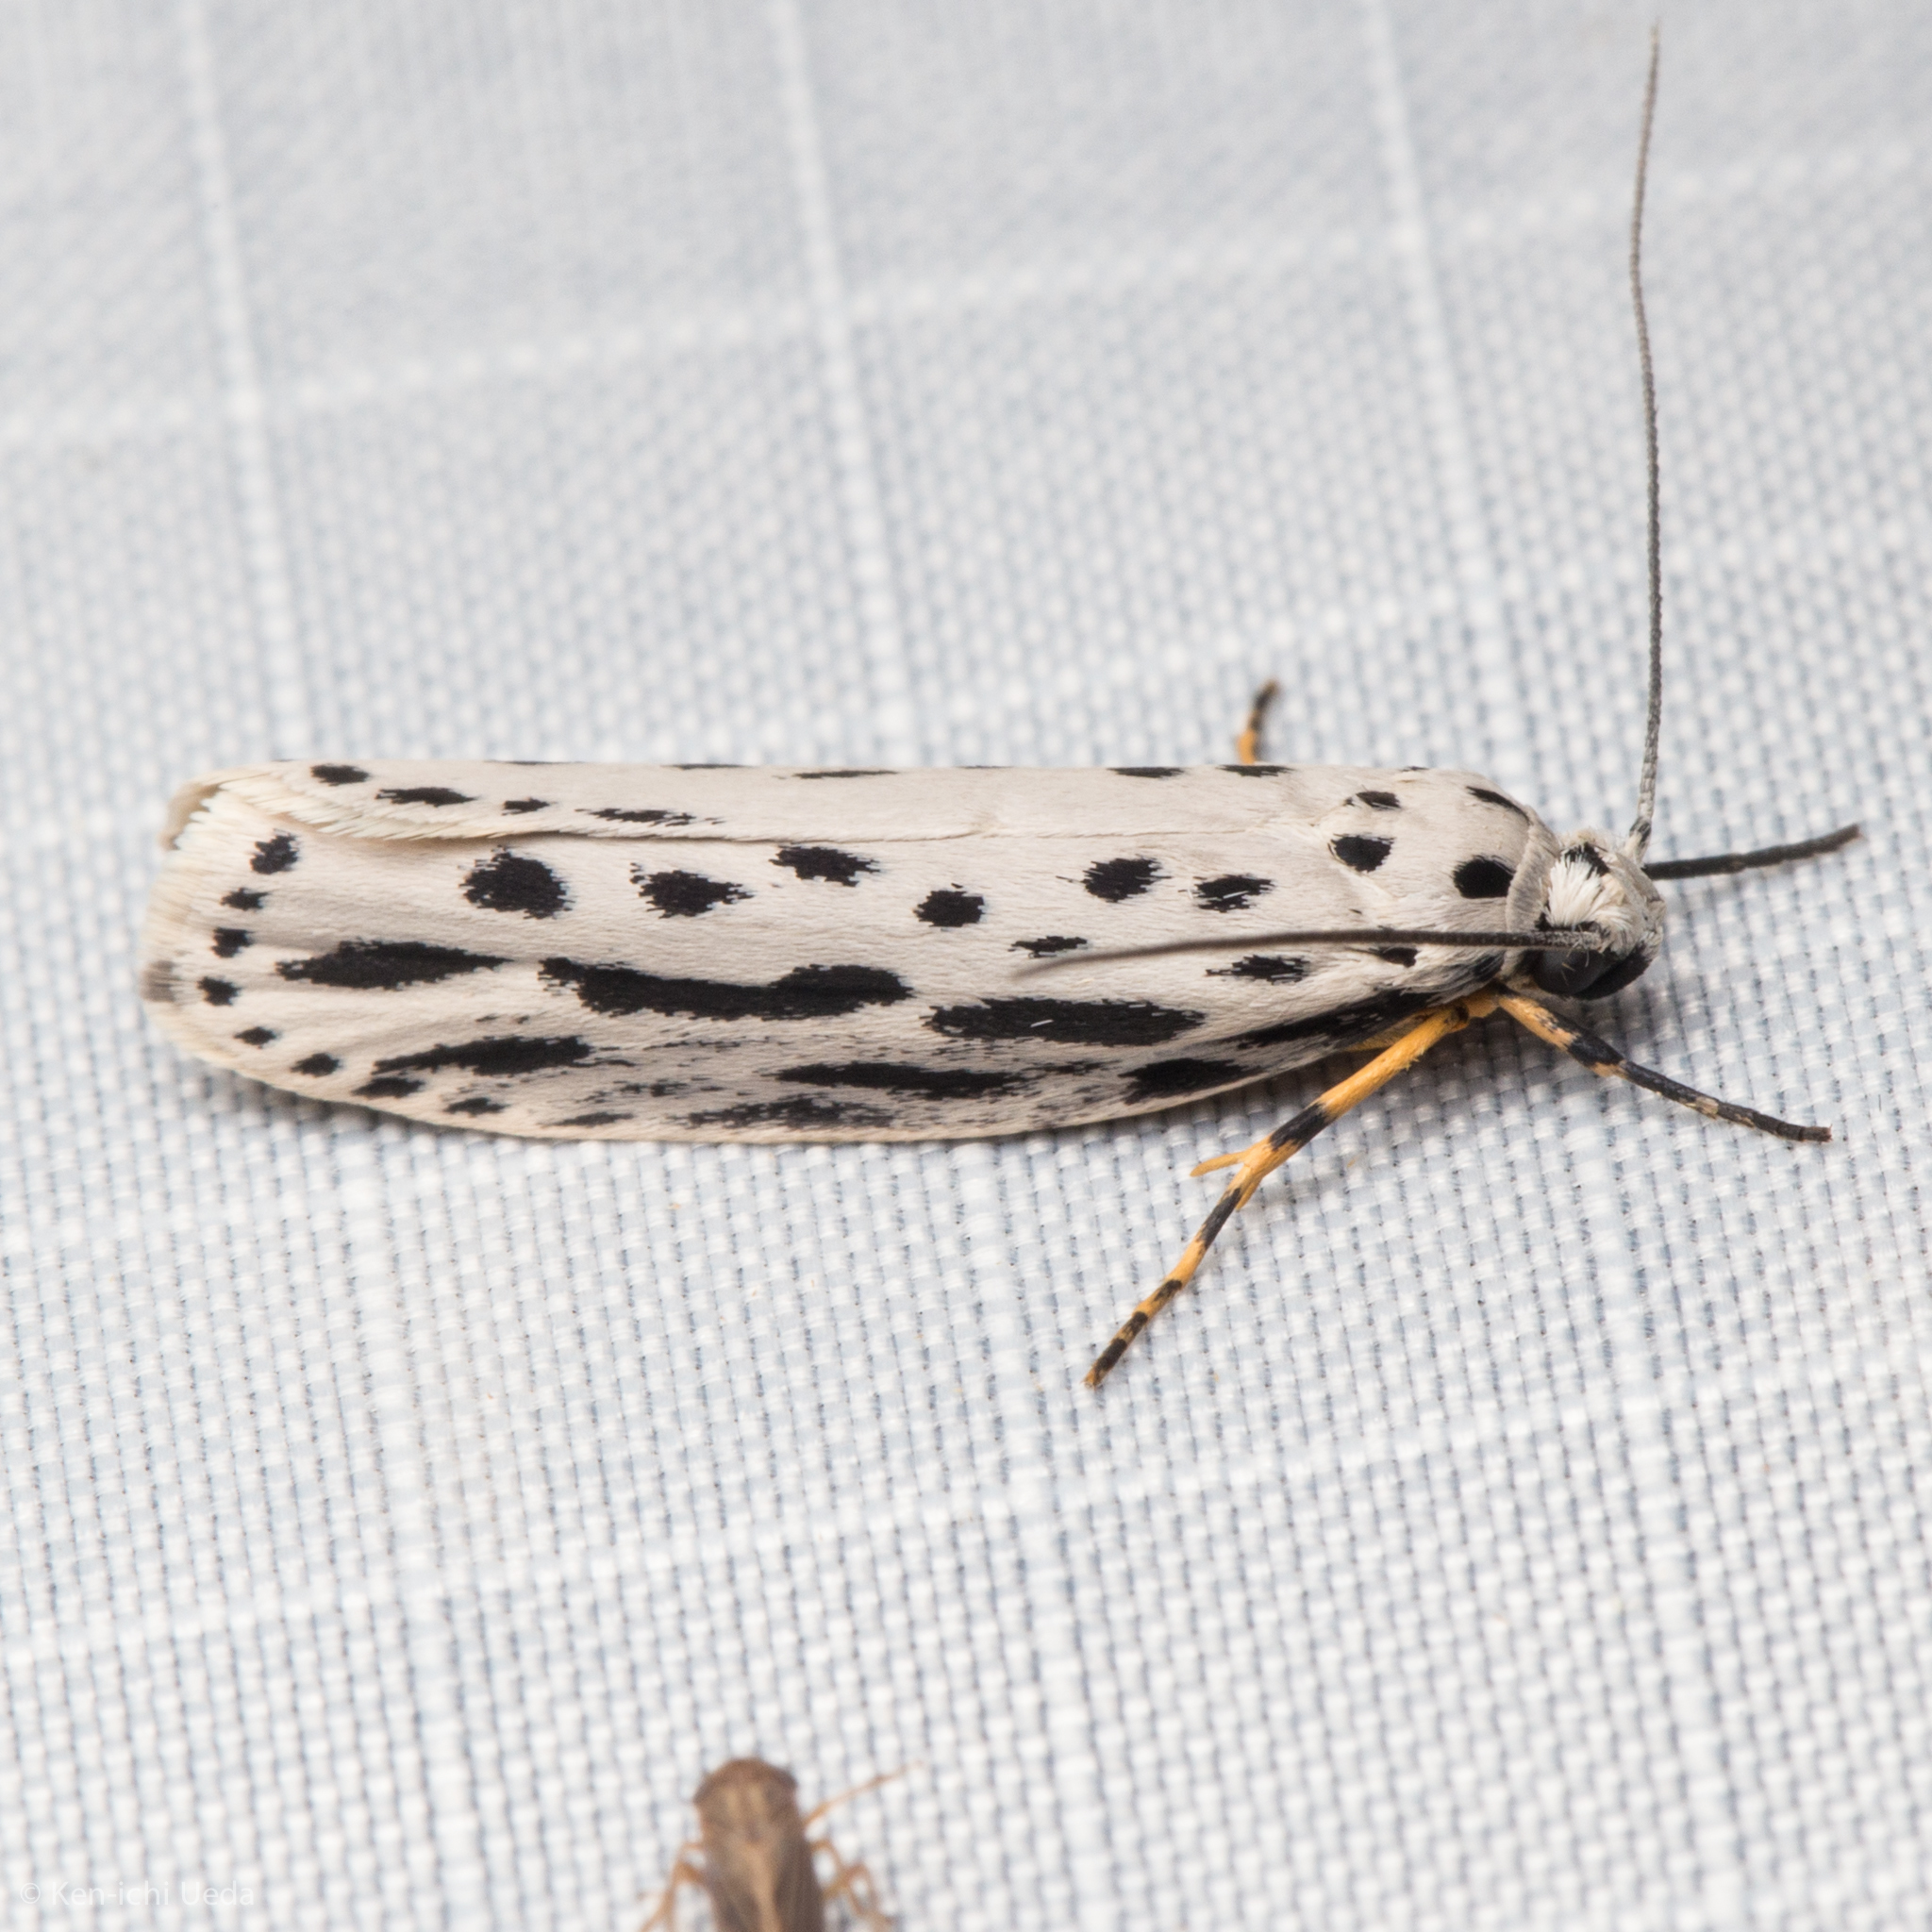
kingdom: Animalia
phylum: Arthropoda
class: Insecta
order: Lepidoptera
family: Ethmiidae
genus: Ethmia
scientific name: Ethmia zelleriella
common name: Zeller's ethmia
